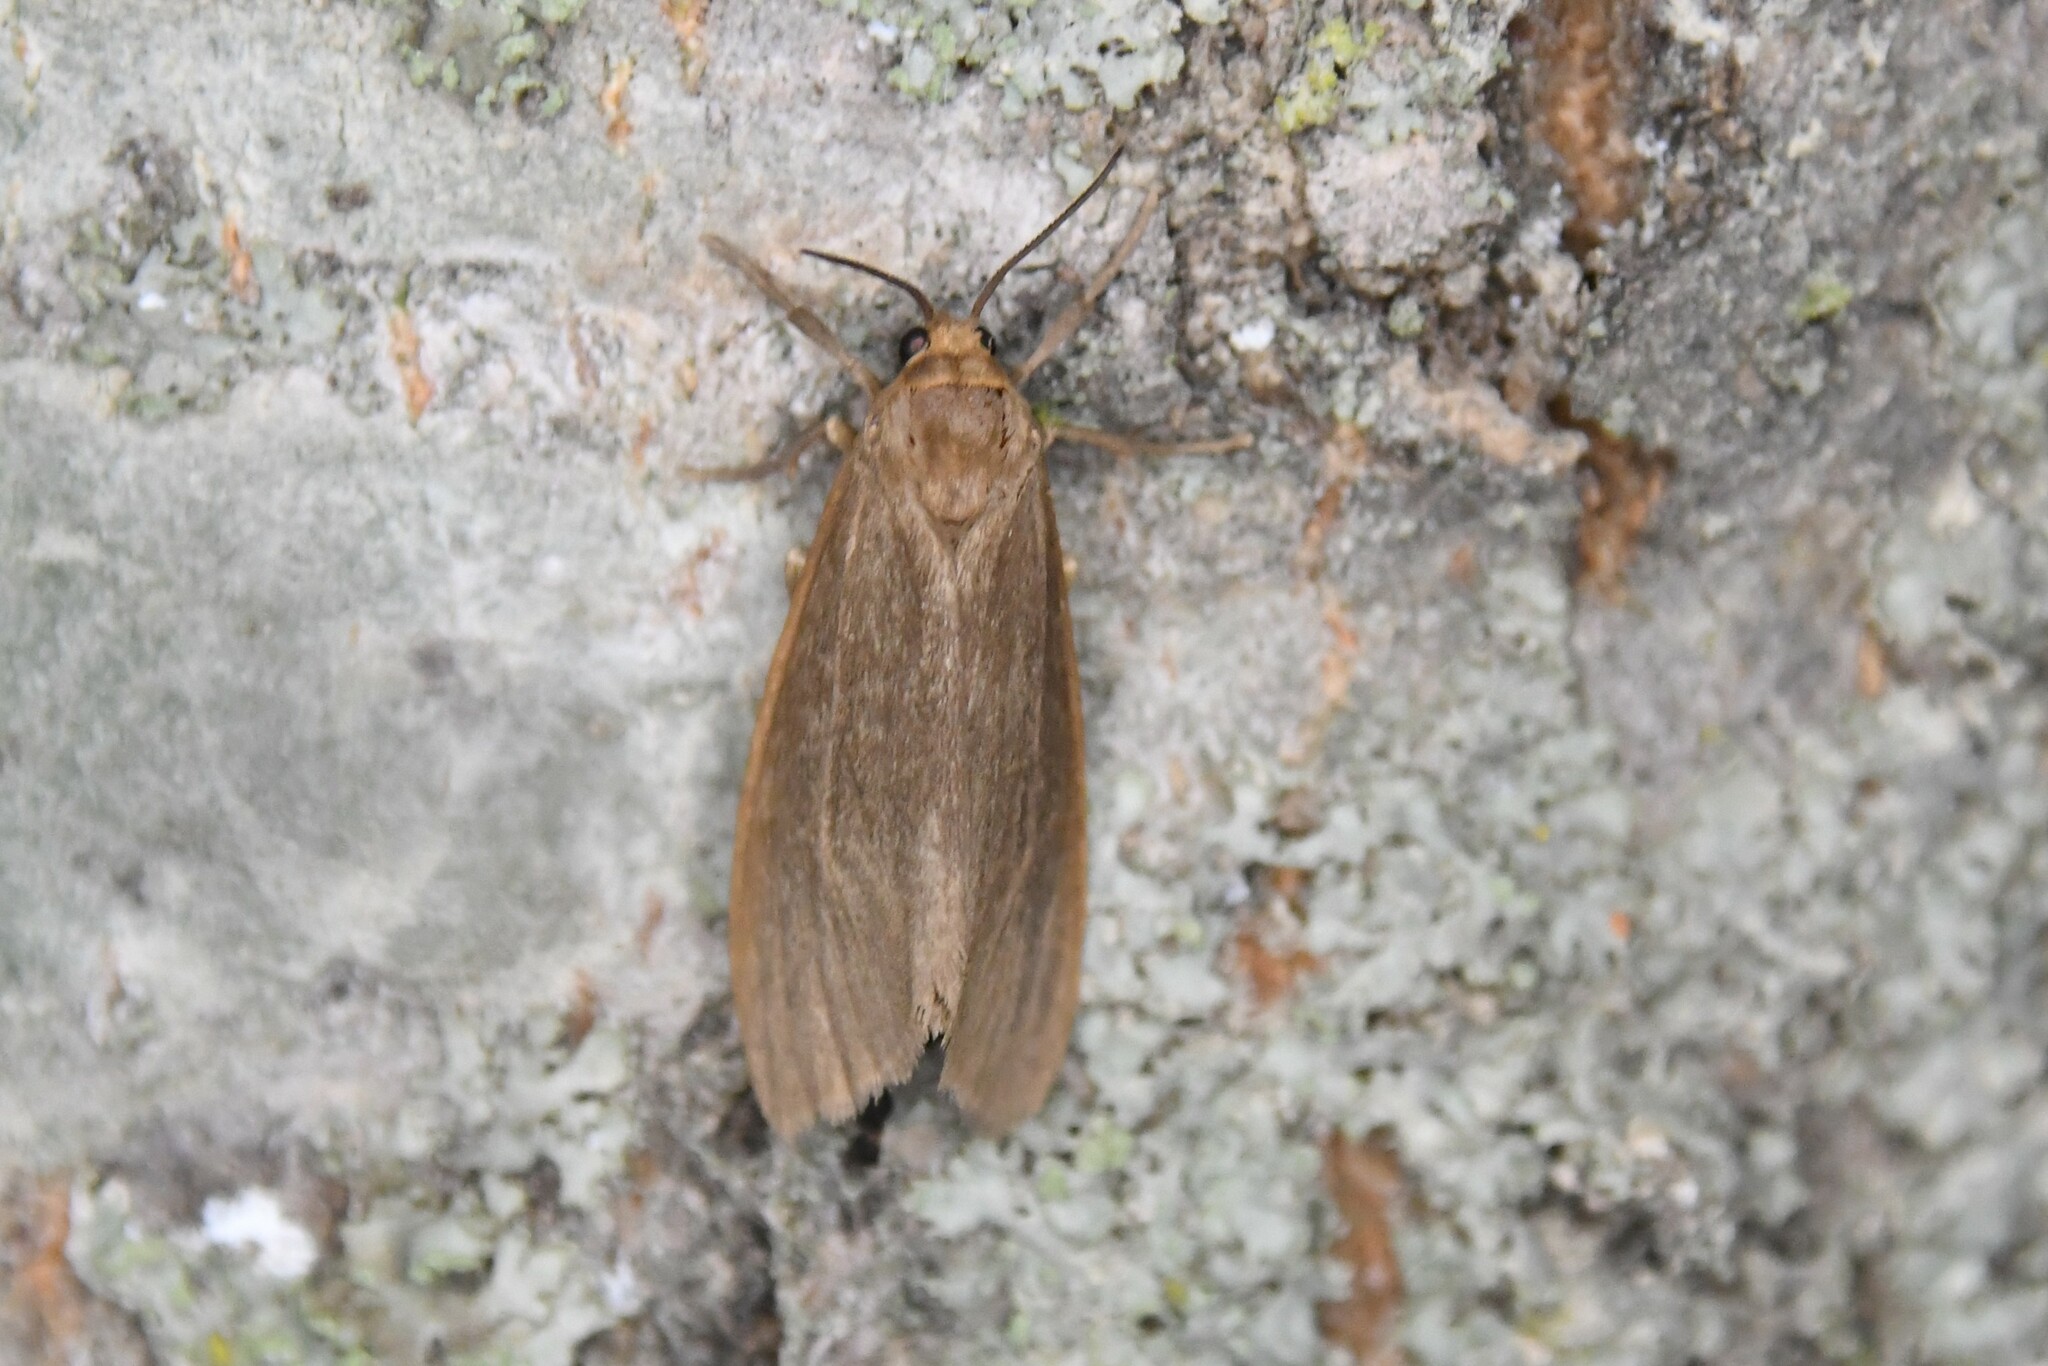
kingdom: Animalia
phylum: Arthropoda
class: Insecta
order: Lepidoptera
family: Erebidae
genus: Virbia
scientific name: Virbia opella
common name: Tawny virbia moth
